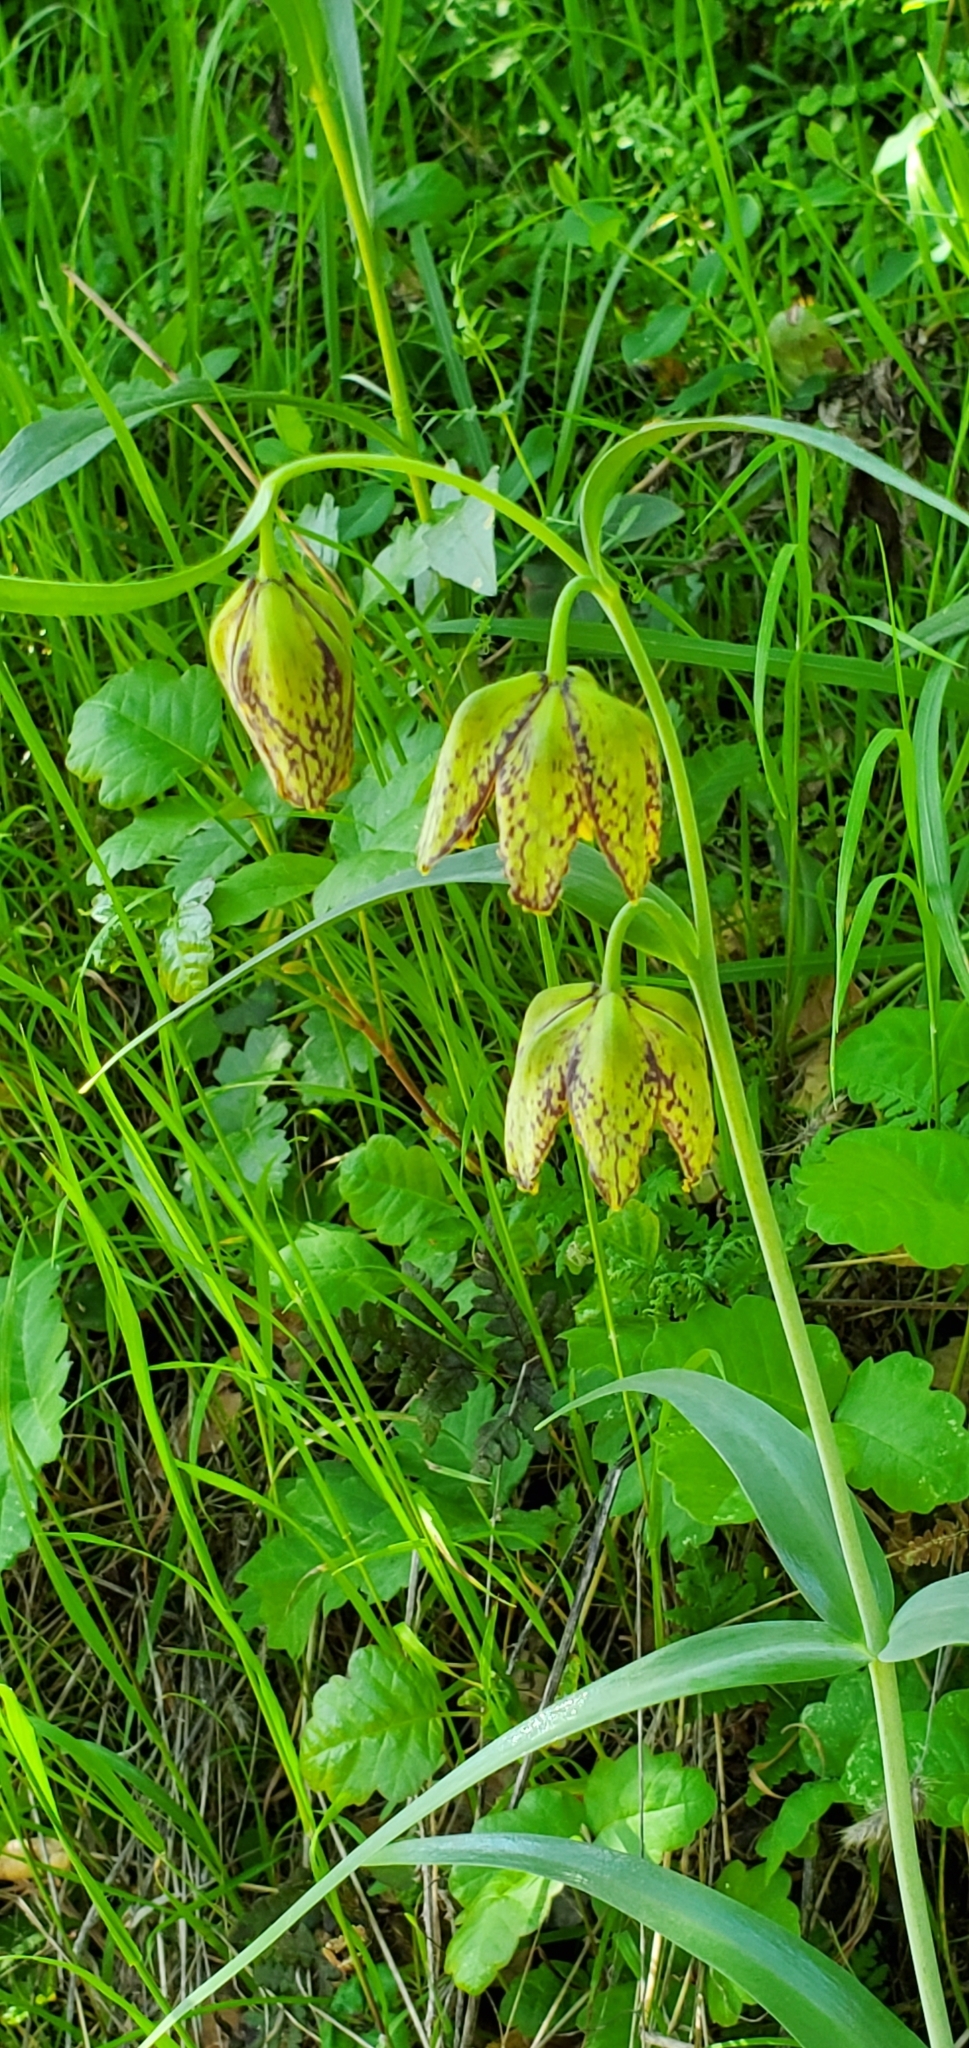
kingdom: Plantae
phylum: Tracheophyta
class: Liliopsida
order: Liliales
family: Liliaceae
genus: Fritillaria
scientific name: Fritillaria affinis
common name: Ojai fritillary
